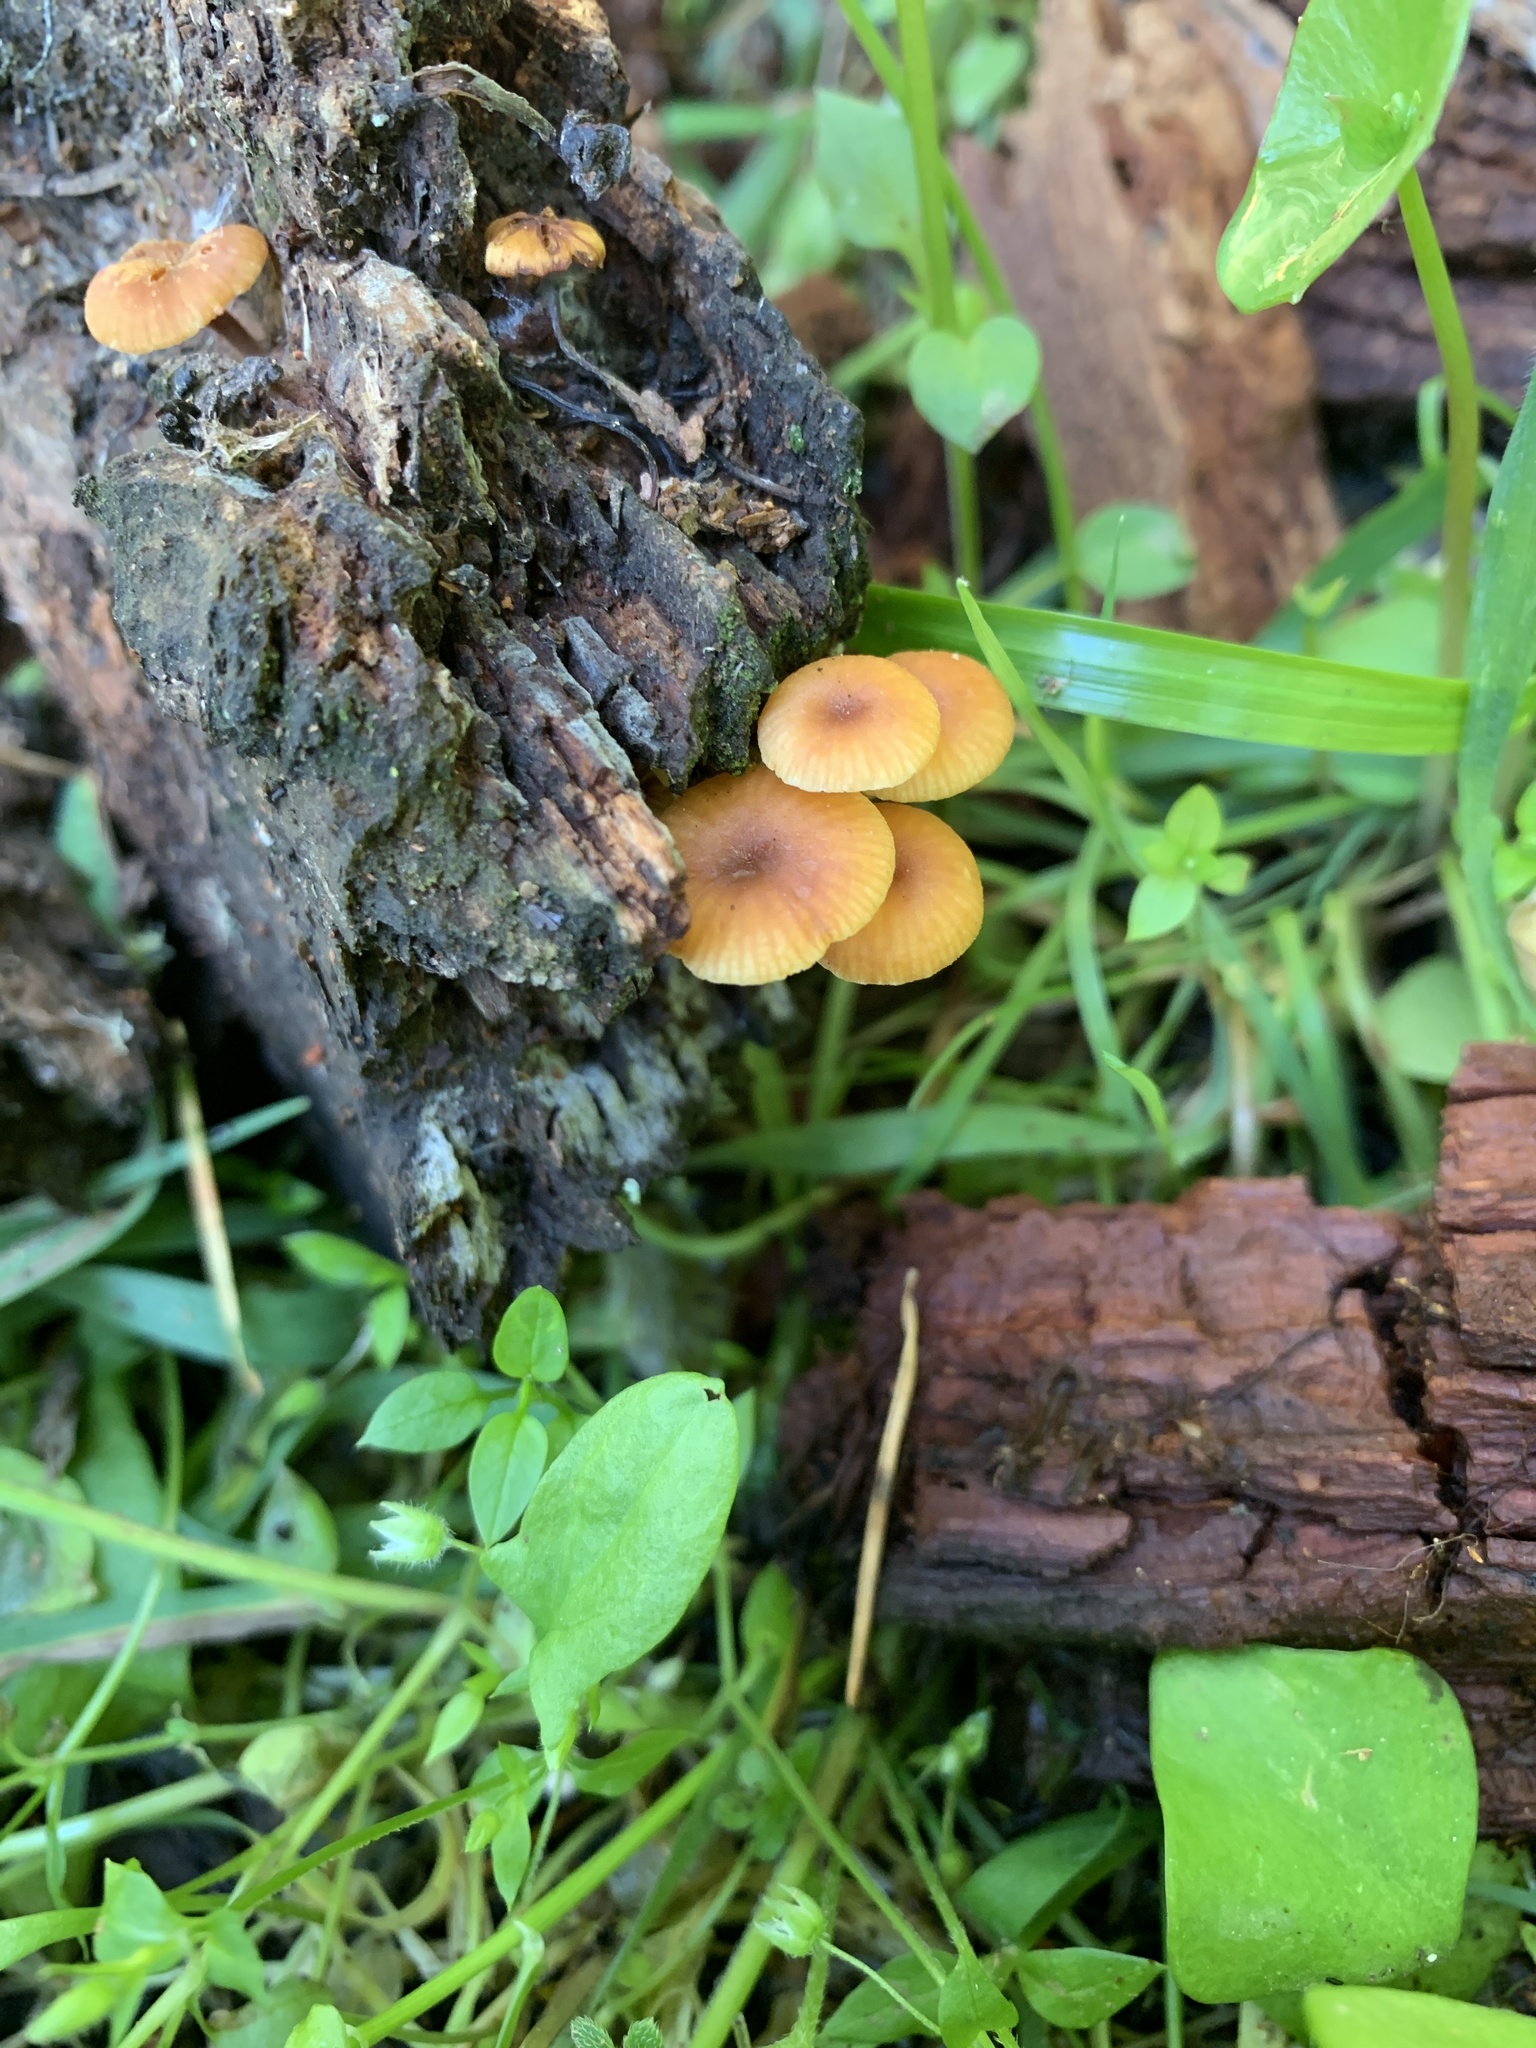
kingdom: Fungi
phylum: Basidiomycota
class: Agaricomycetes
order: Agaricales
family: Mycenaceae
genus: Xeromphalina
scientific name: Xeromphalina campanella
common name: Pinewood gingertail
